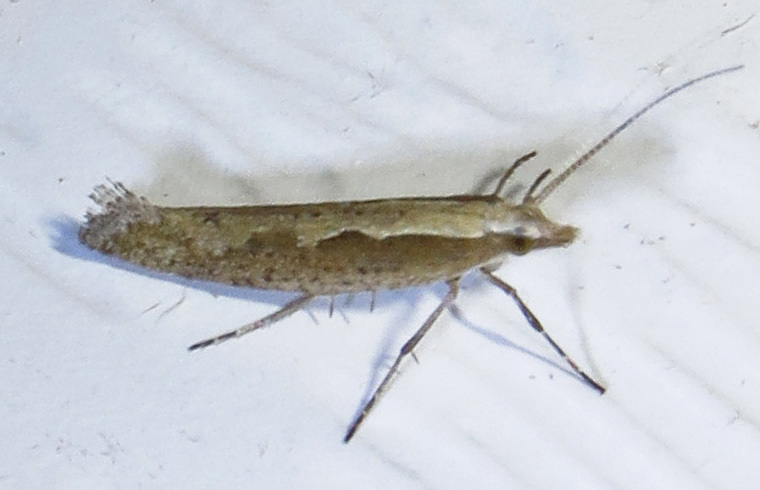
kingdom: Animalia
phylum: Arthropoda
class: Insecta
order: Lepidoptera
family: Plutellidae
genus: Plutella
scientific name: Plutella xylostella
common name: Diamond-back moth
